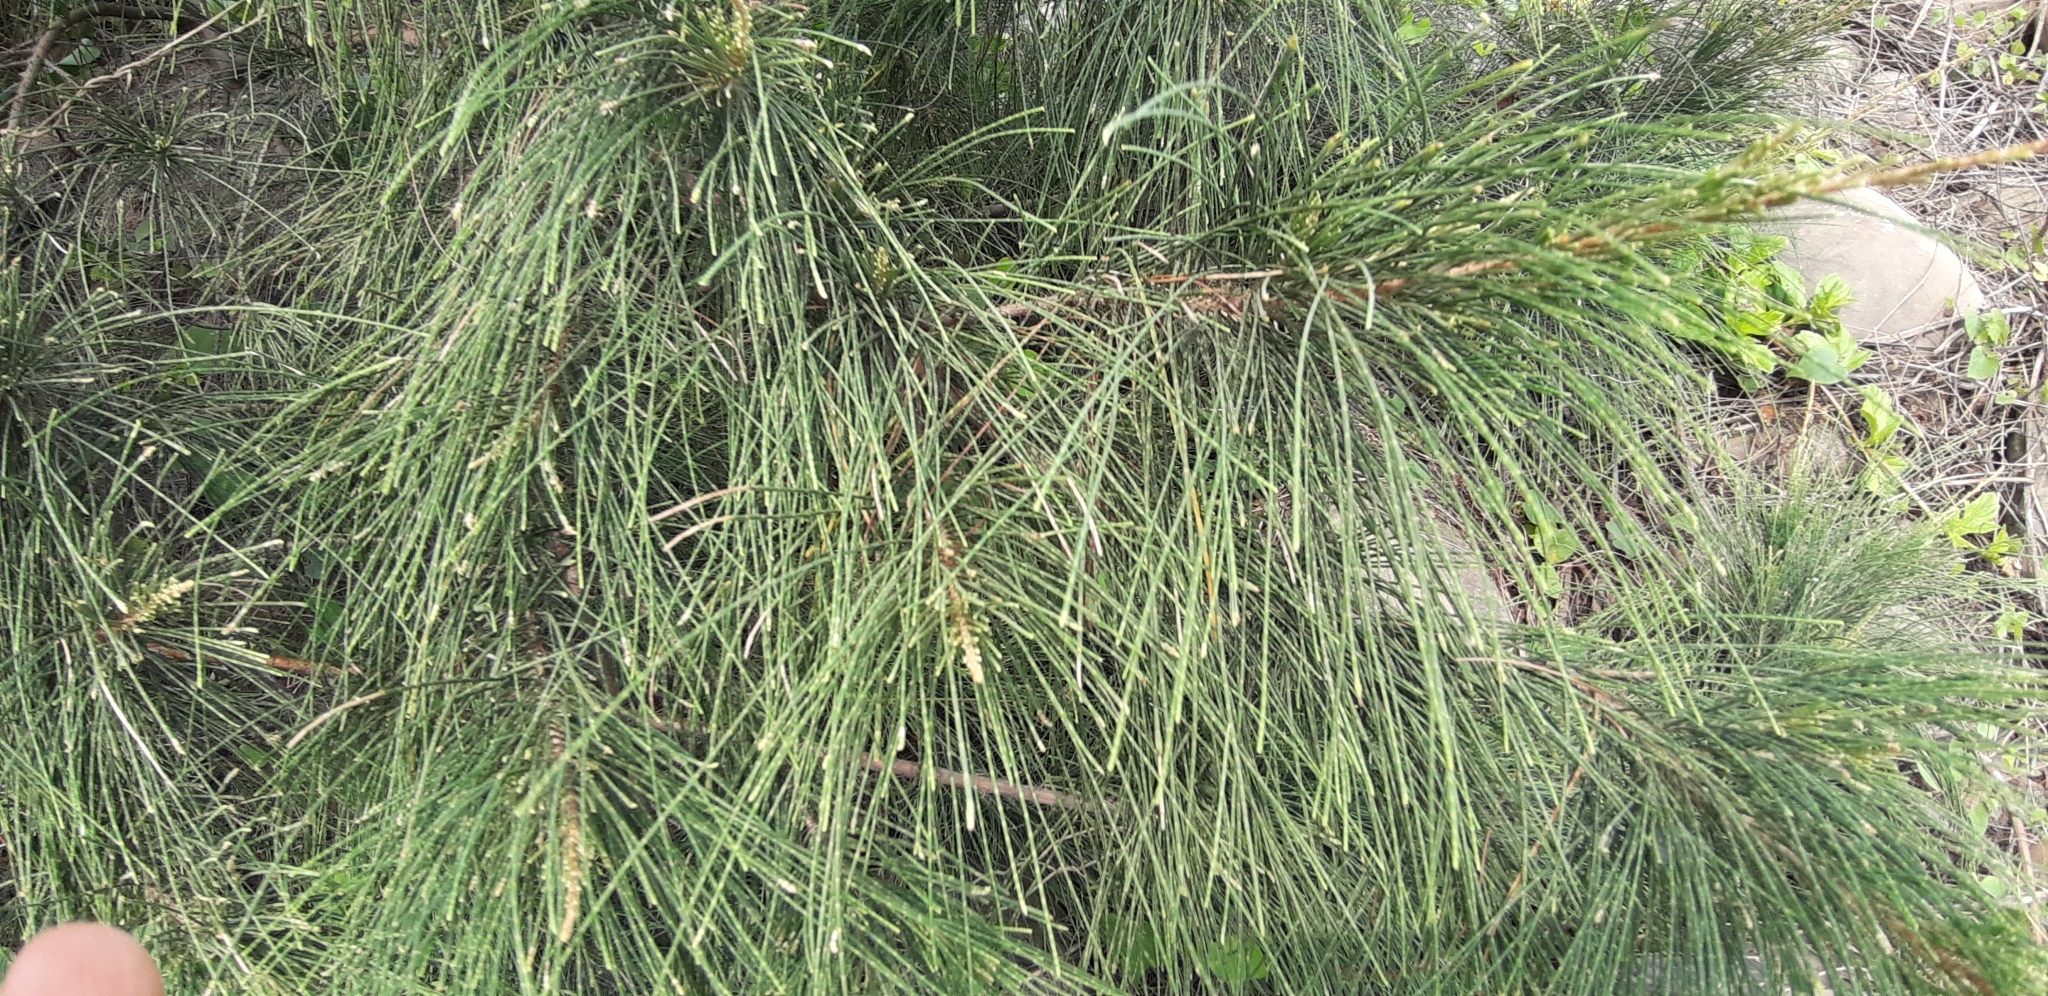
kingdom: Plantae
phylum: Tracheophyta
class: Magnoliopsida
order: Fagales
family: Casuarinaceae
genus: Casuarina
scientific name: Casuarina equisetifolia
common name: Beach sheoak
